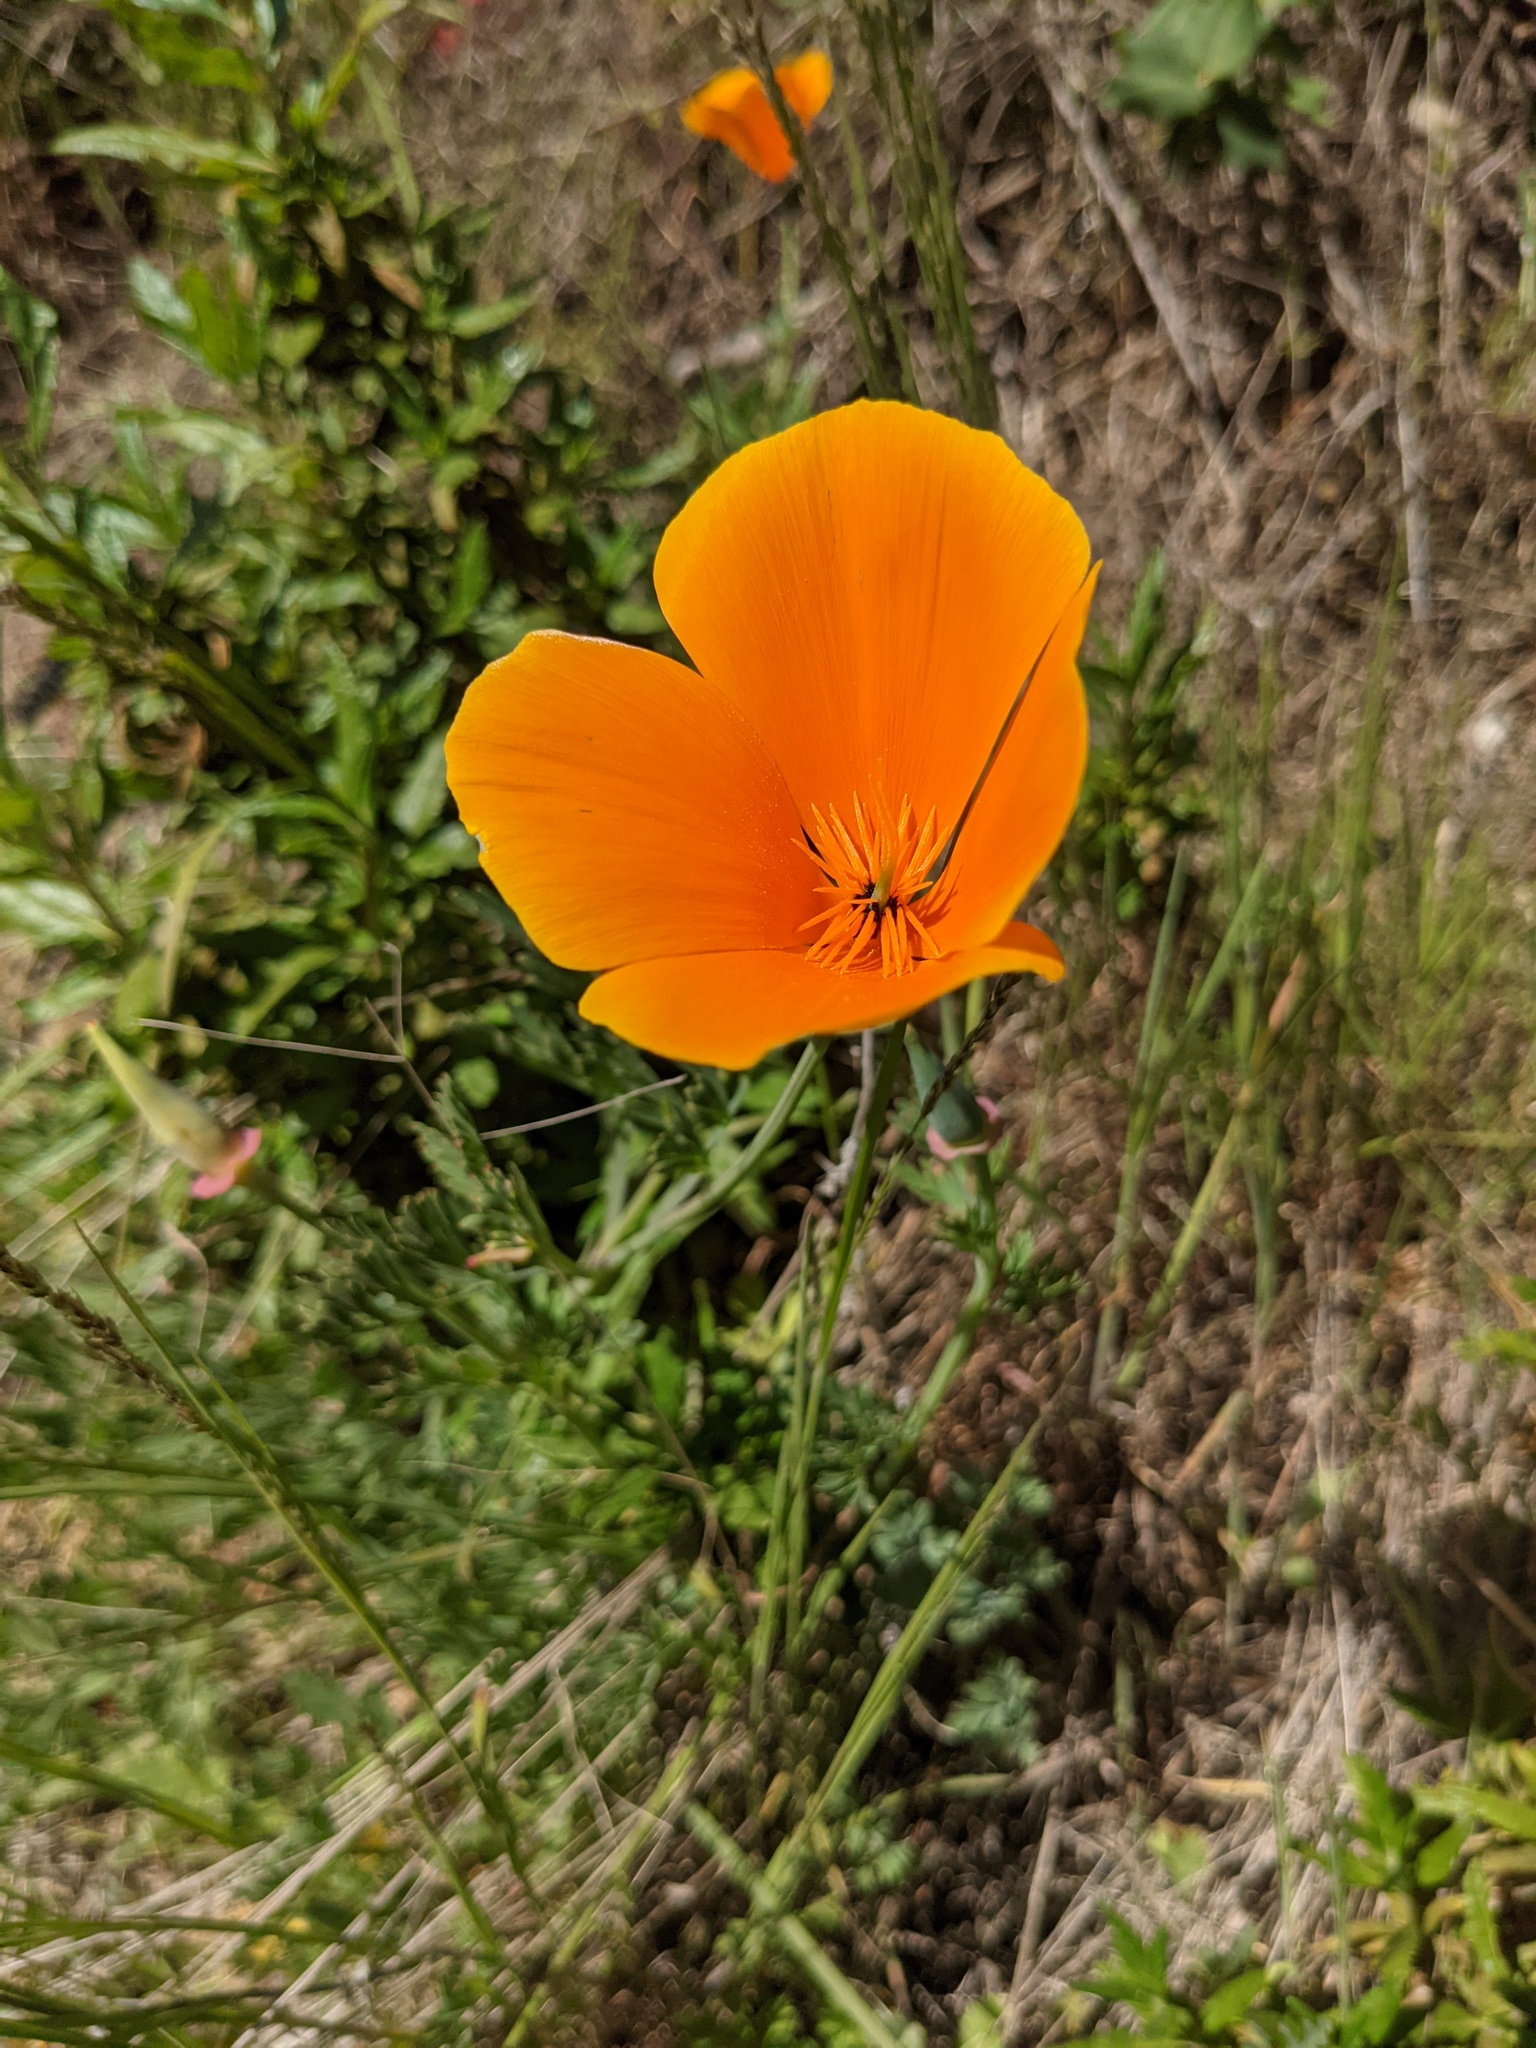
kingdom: Plantae
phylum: Tracheophyta
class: Magnoliopsida
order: Ranunculales
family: Papaveraceae
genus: Eschscholzia
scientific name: Eschscholzia californica
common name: California poppy
